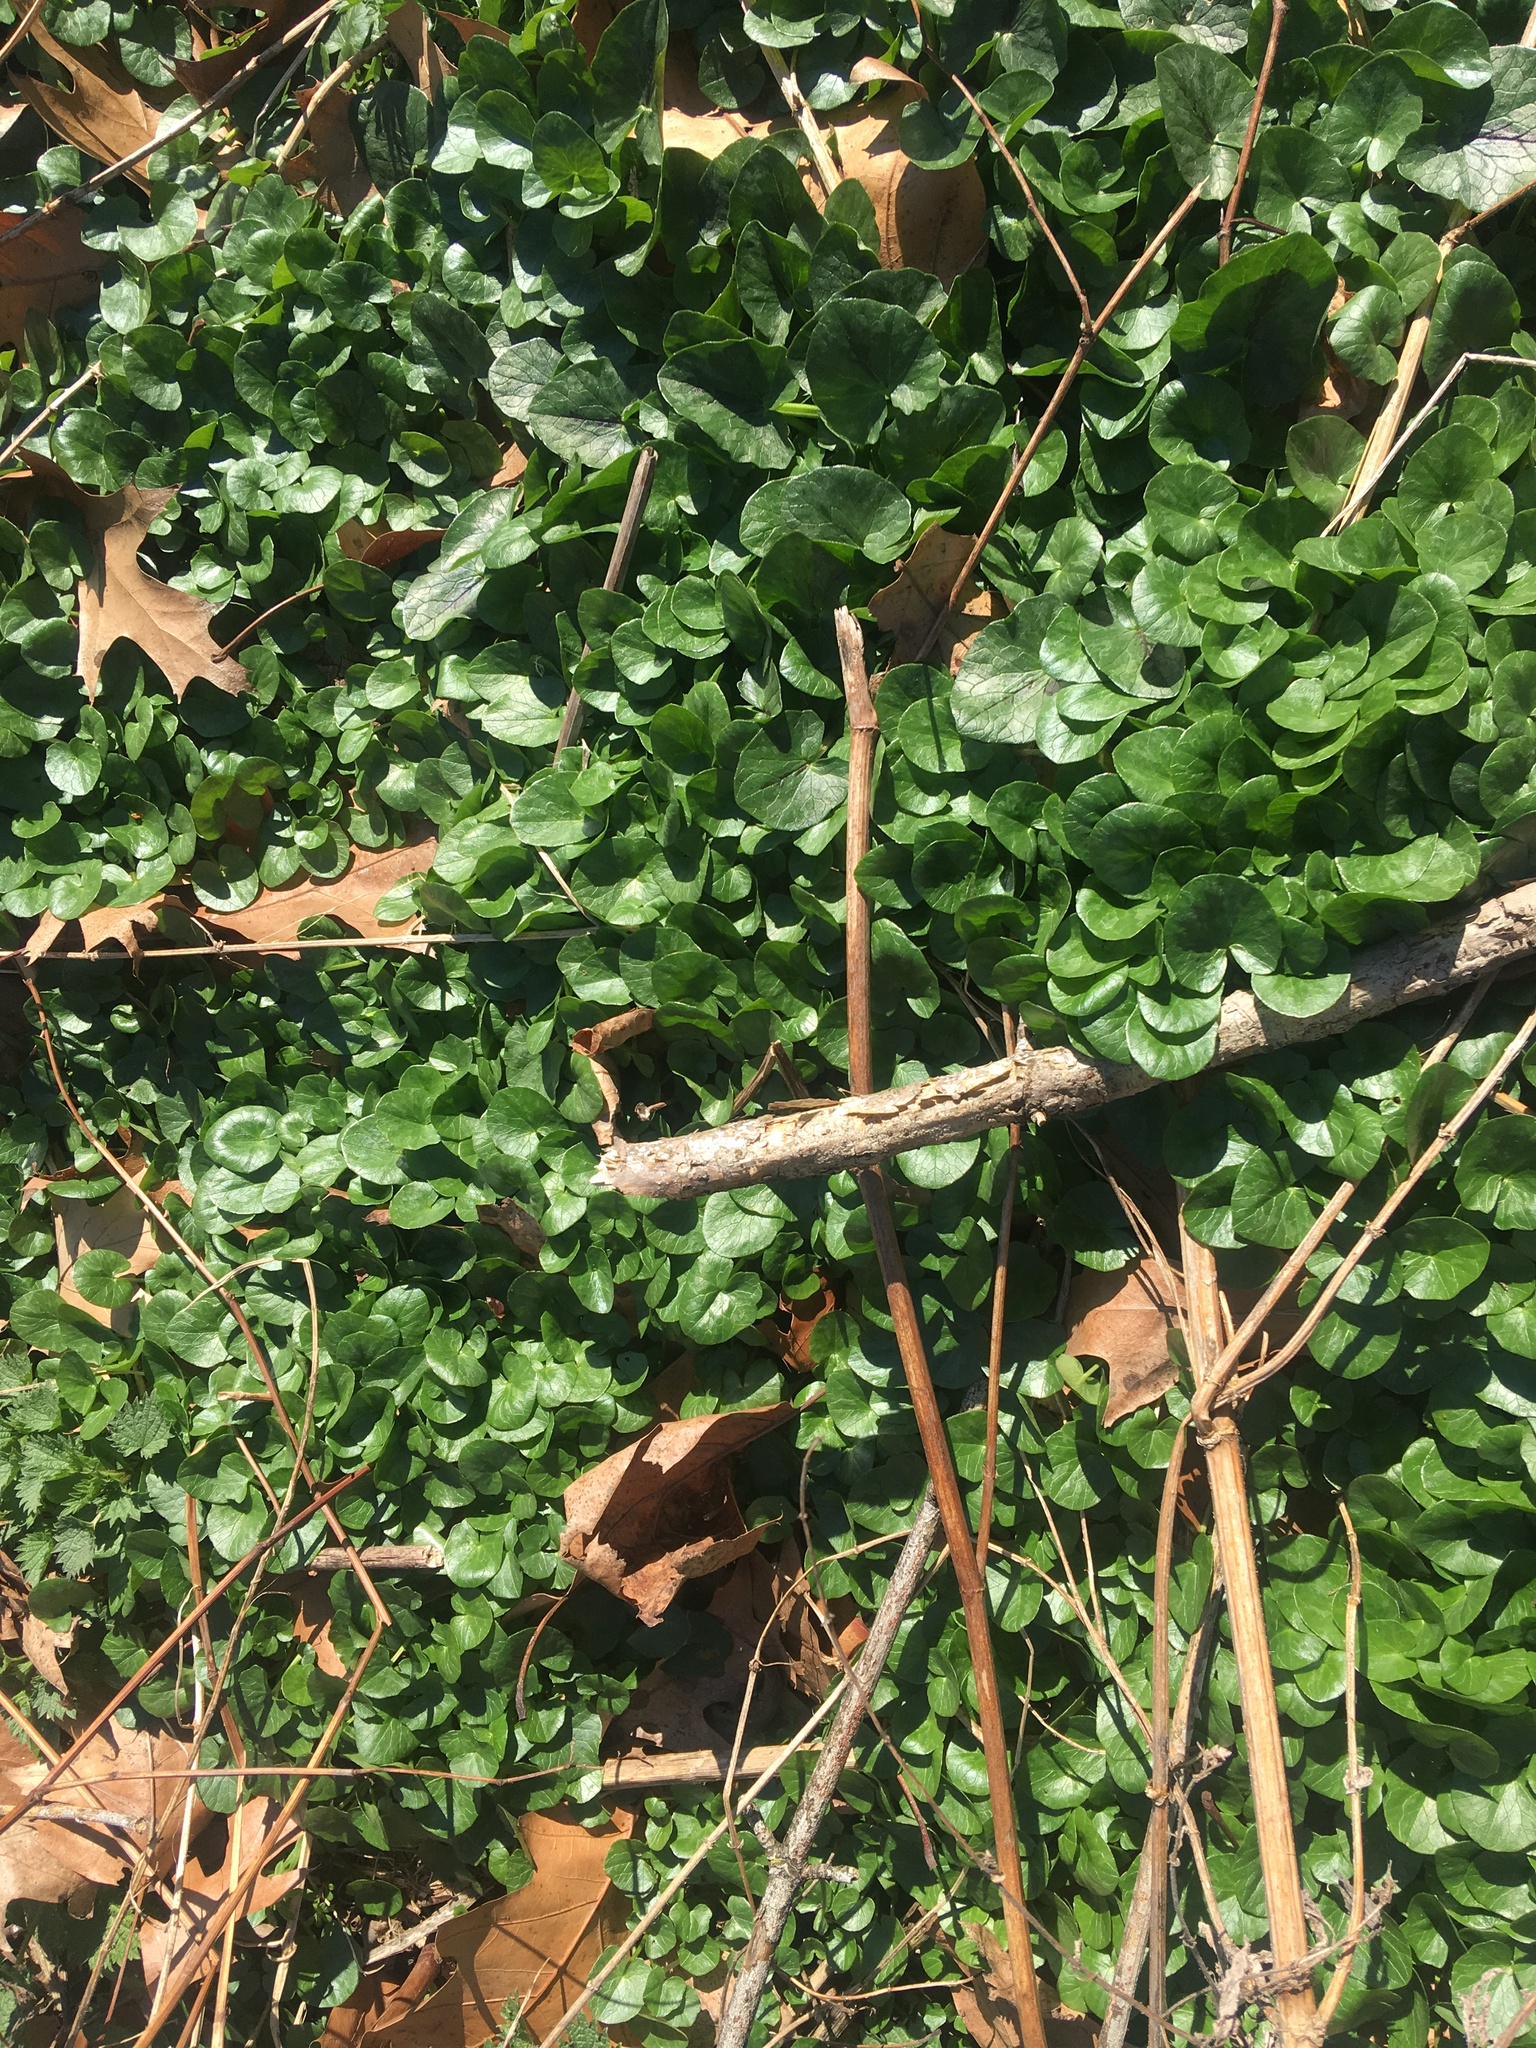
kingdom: Plantae
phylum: Tracheophyta
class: Magnoliopsida
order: Ranunculales
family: Ranunculaceae
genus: Ficaria
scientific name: Ficaria verna
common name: Lesser celandine
